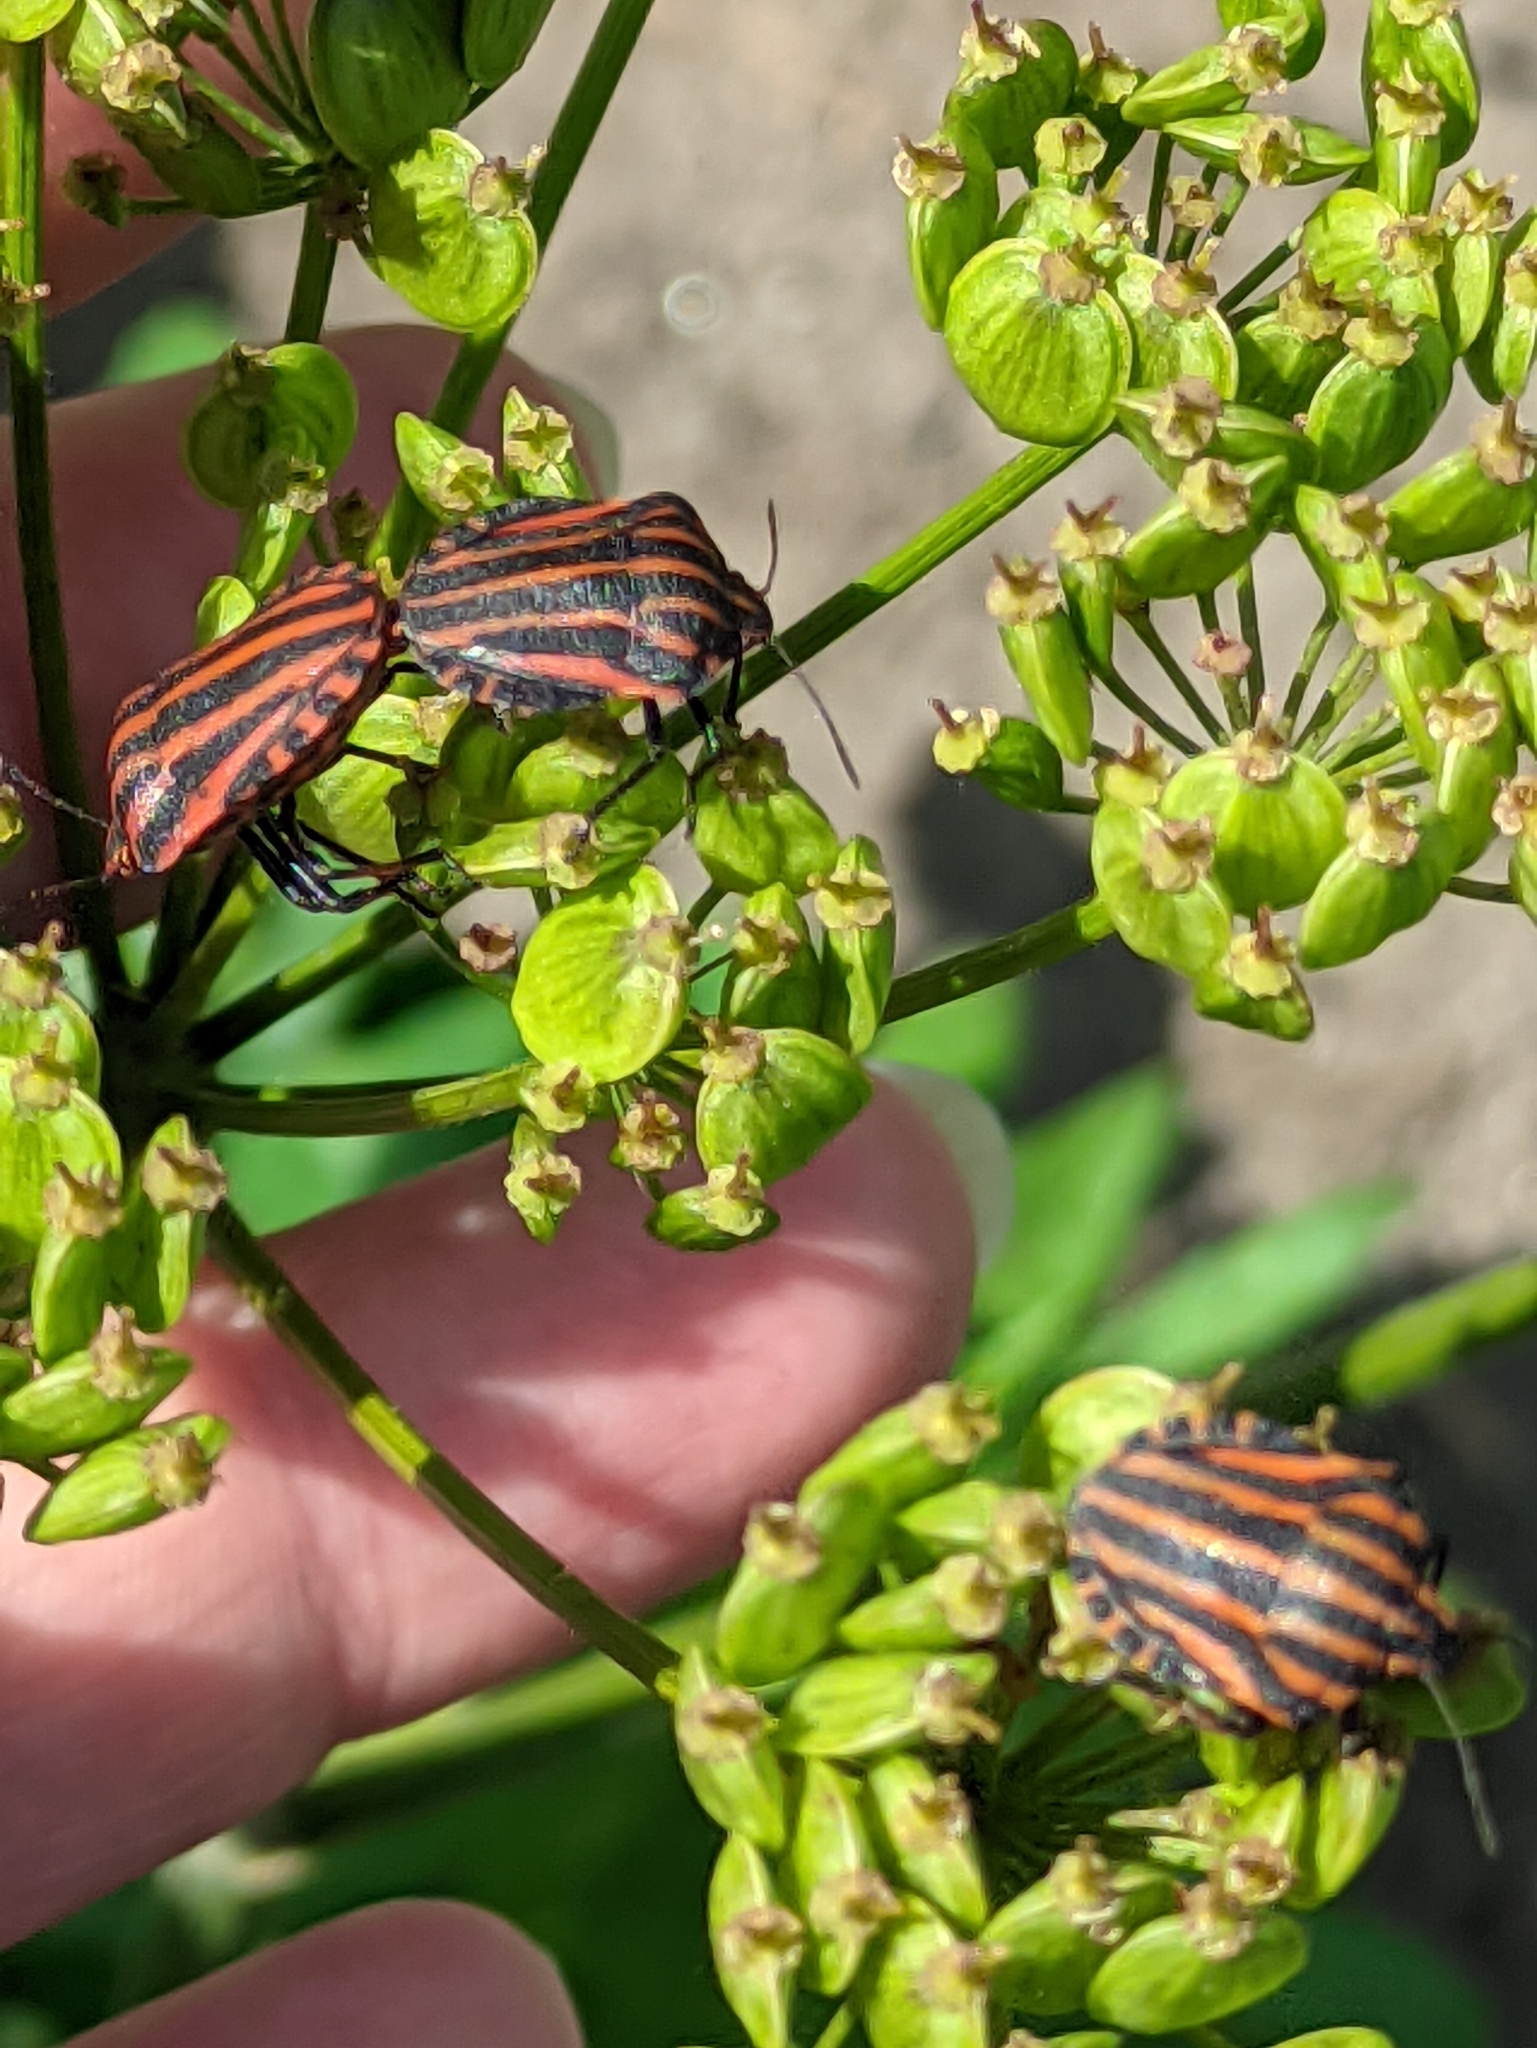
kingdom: Animalia
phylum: Arthropoda
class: Insecta
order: Hemiptera
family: Pentatomidae
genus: Graphosoma
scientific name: Graphosoma italicum
